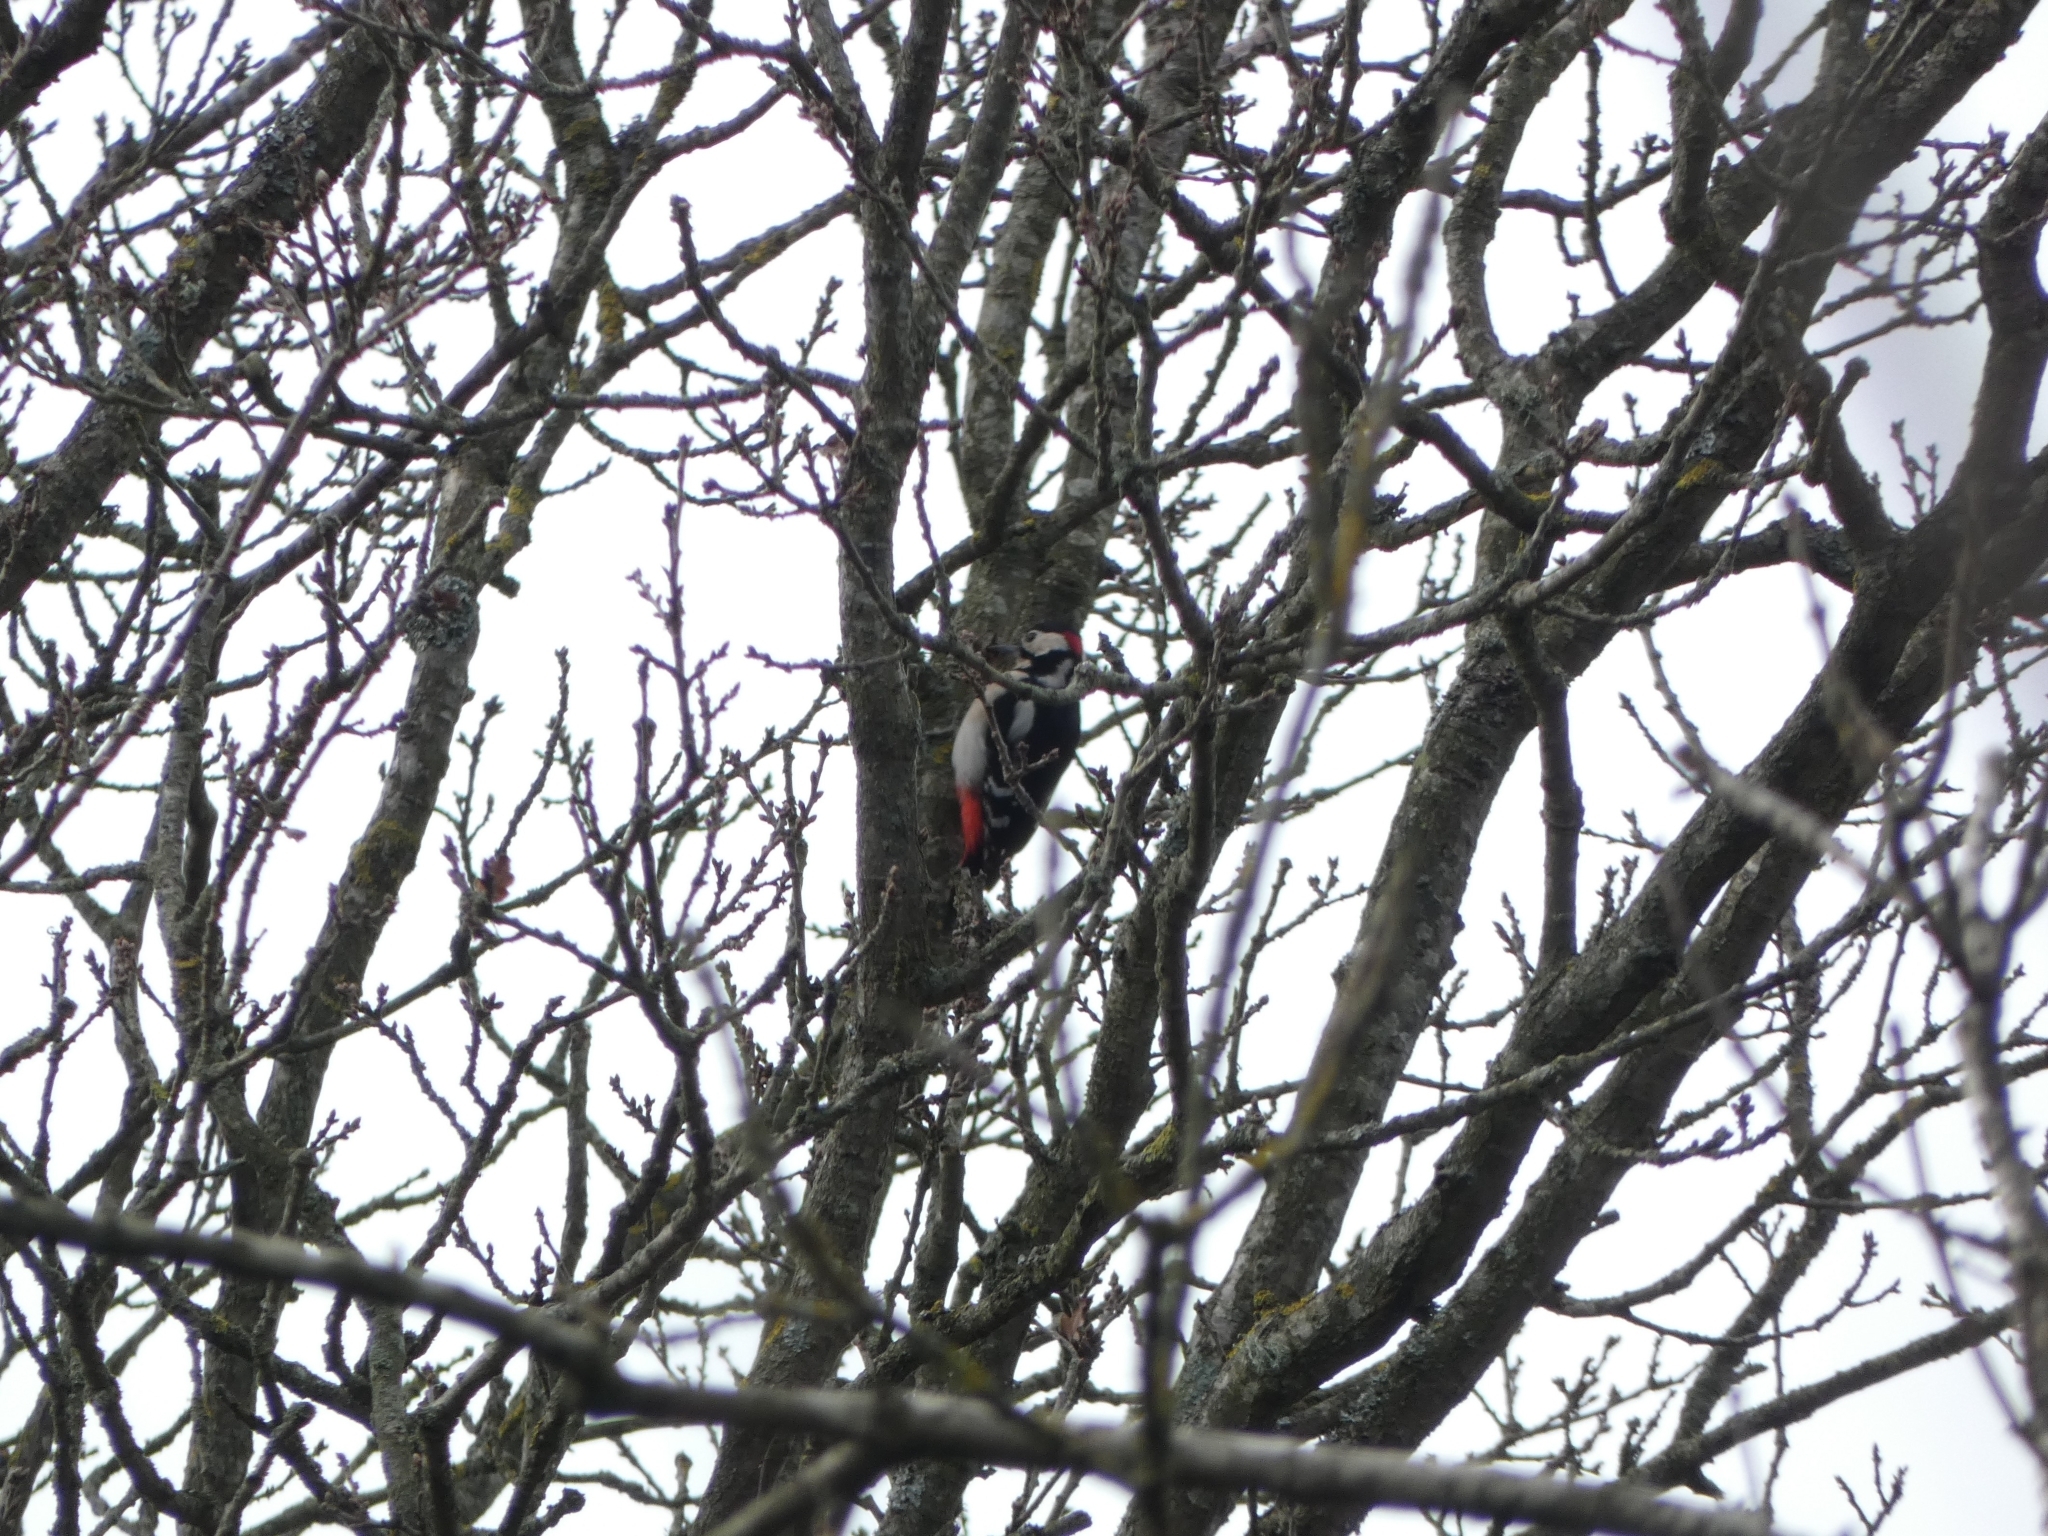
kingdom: Animalia
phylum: Chordata
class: Aves
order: Piciformes
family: Picidae
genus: Dendrocopos
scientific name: Dendrocopos major
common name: Great spotted woodpecker
